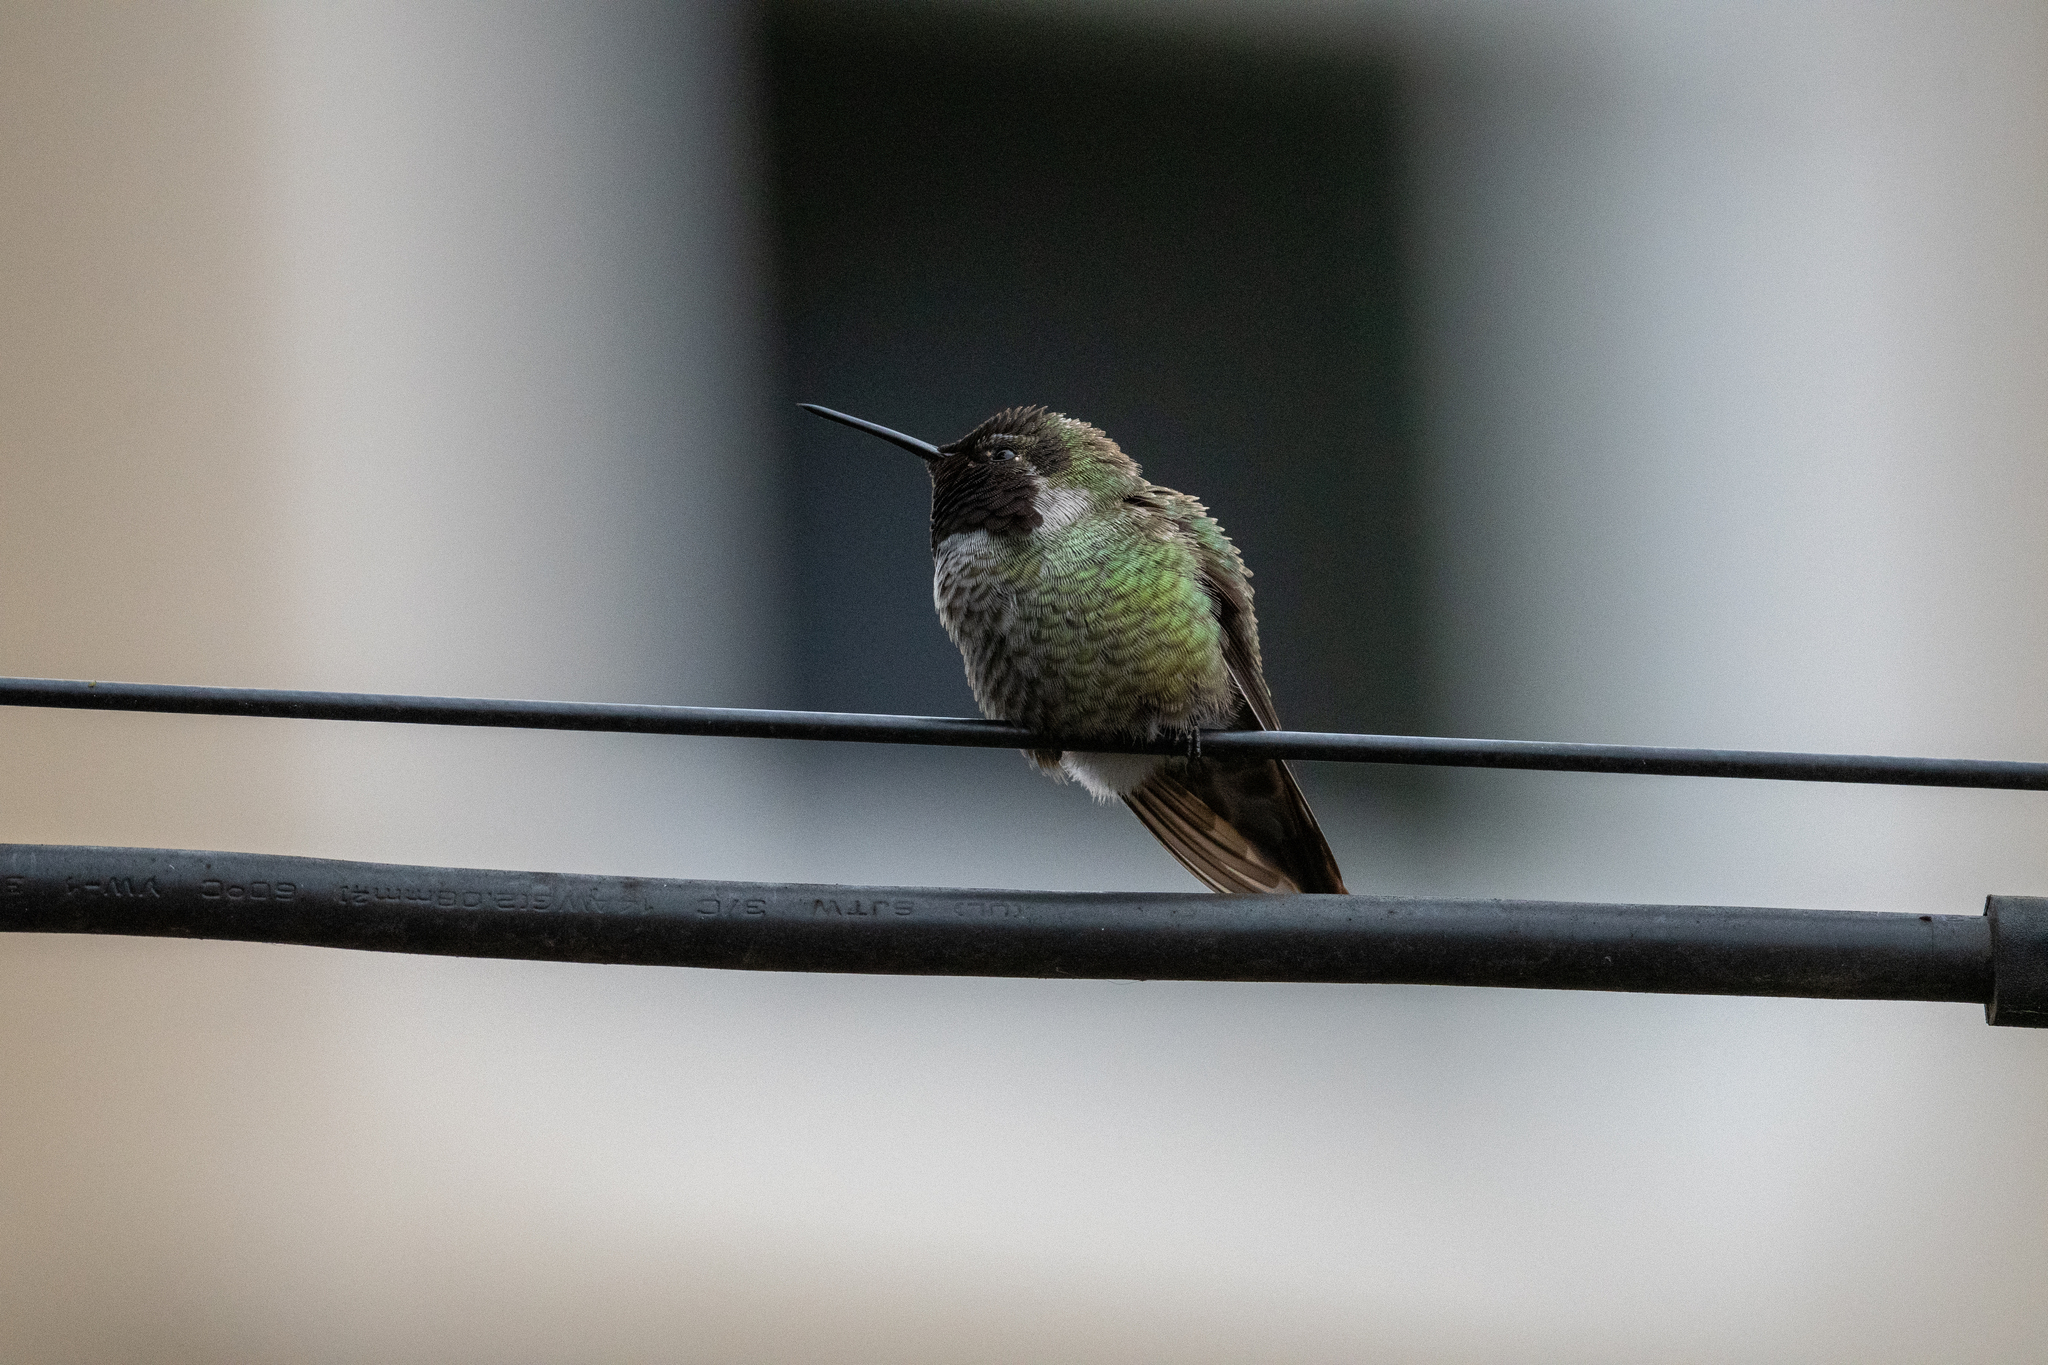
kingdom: Animalia
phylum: Chordata
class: Aves
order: Apodiformes
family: Trochilidae
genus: Calypte
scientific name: Calypte anna
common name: Anna's hummingbird
